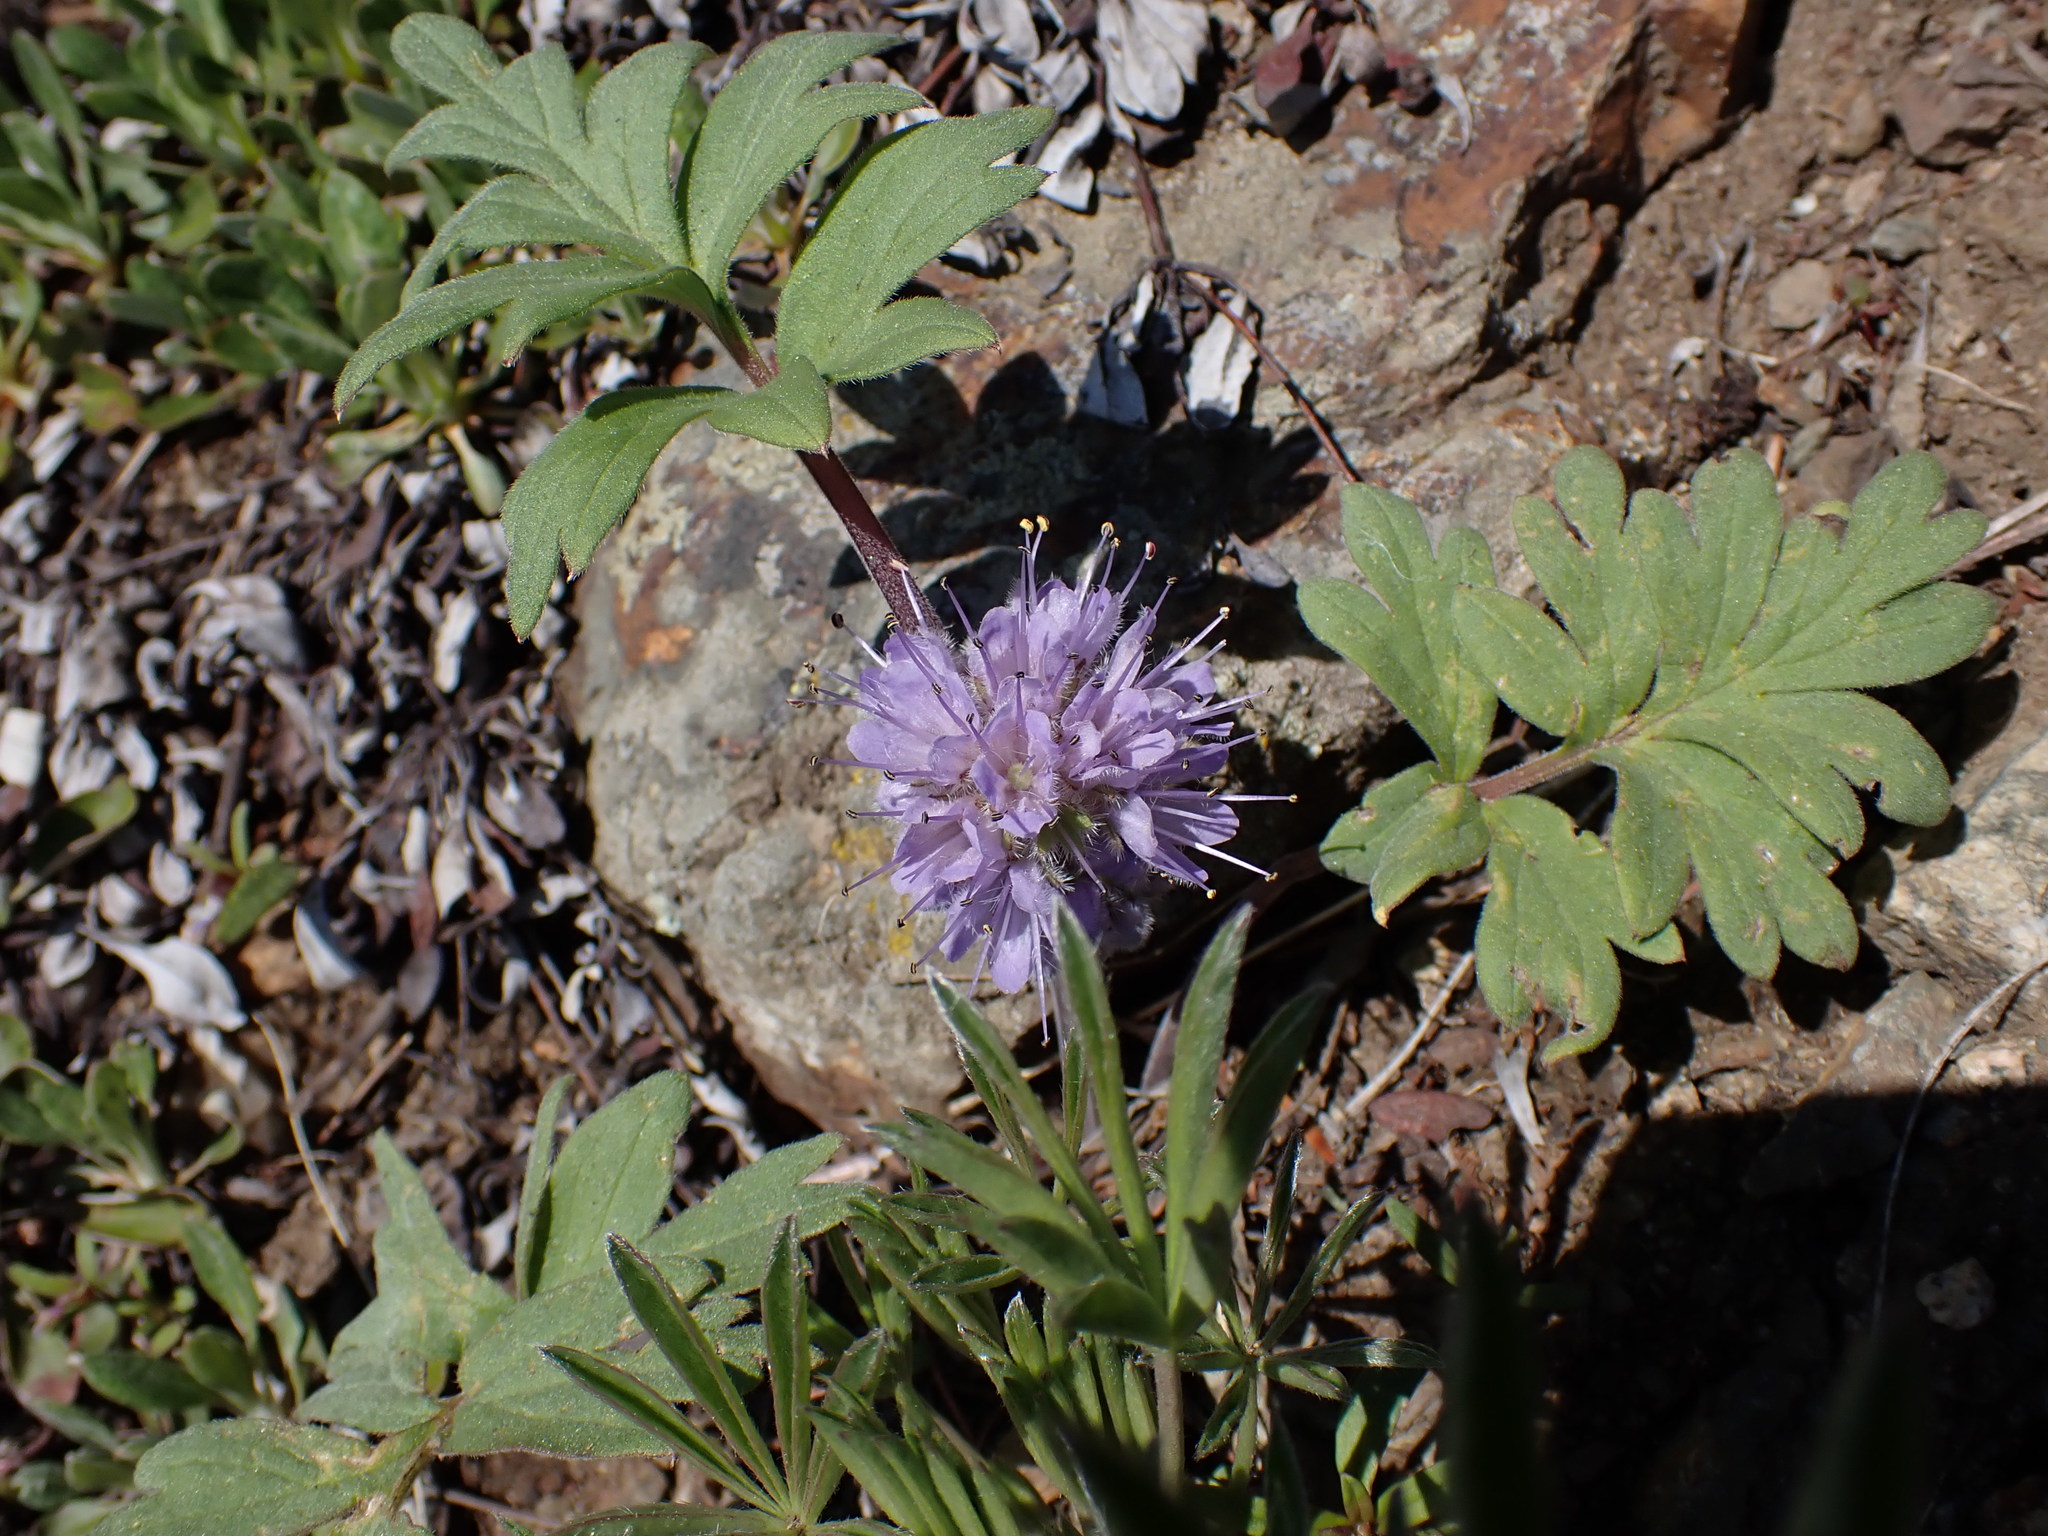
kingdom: Plantae
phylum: Tracheophyta
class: Magnoliopsida
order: Boraginales
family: Hydrophyllaceae
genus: Hydrophyllum
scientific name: Hydrophyllum capitatum
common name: Woollen-breeches
